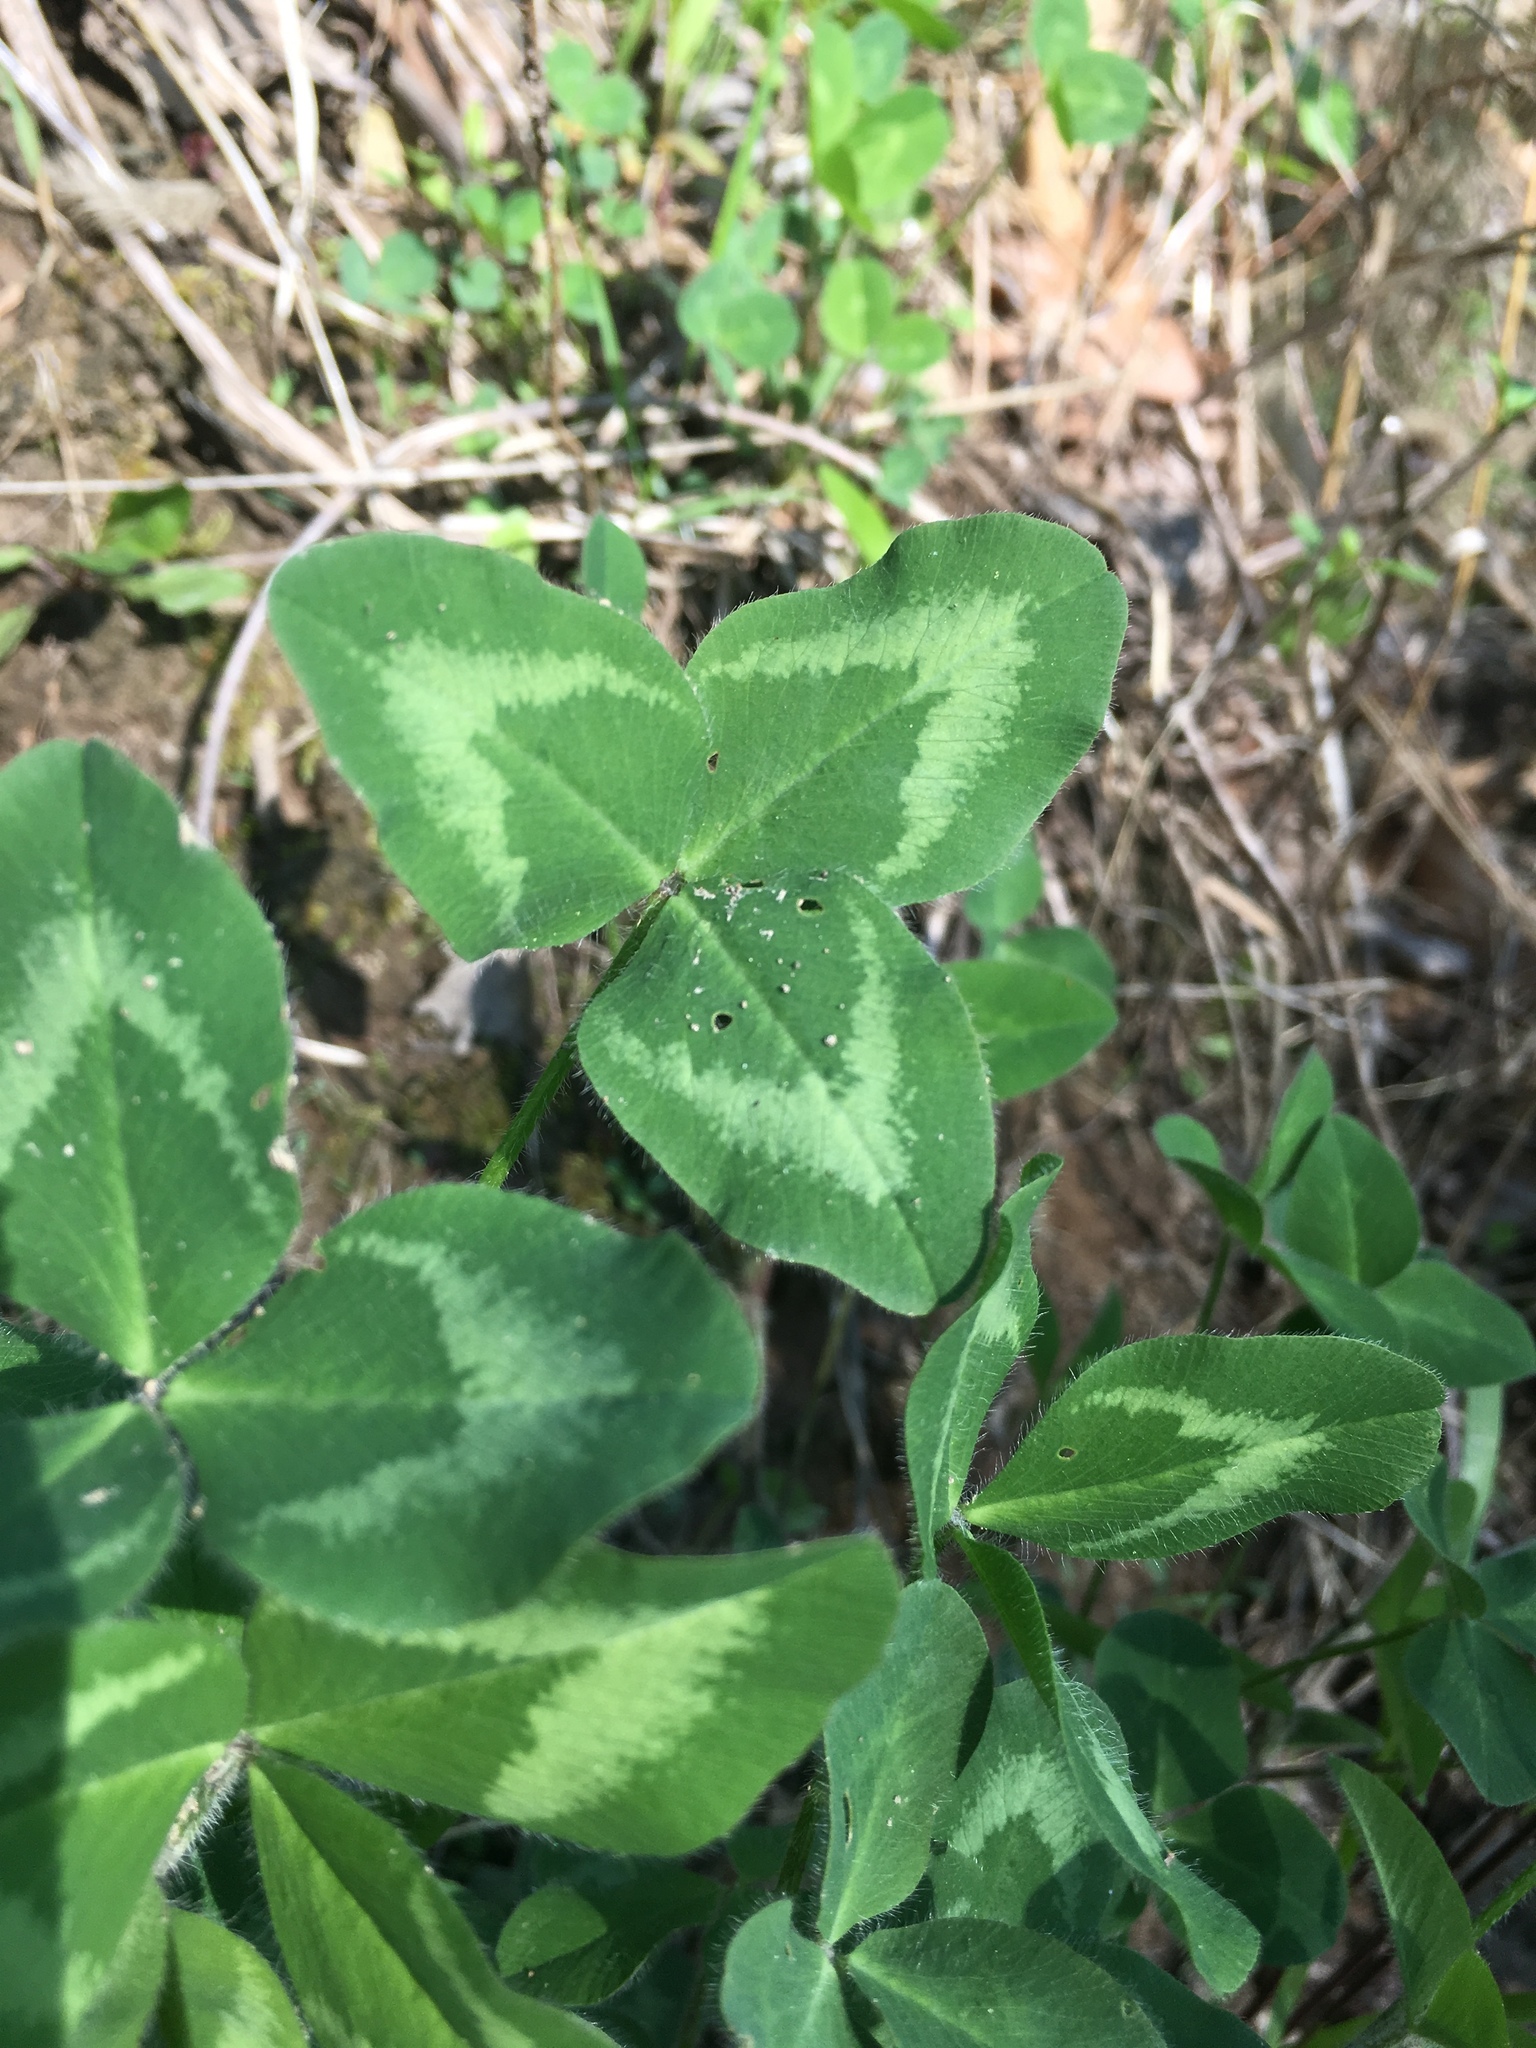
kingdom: Plantae
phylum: Tracheophyta
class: Magnoliopsida
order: Fabales
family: Fabaceae
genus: Trifolium
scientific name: Trifolium pratense
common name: Red clover
